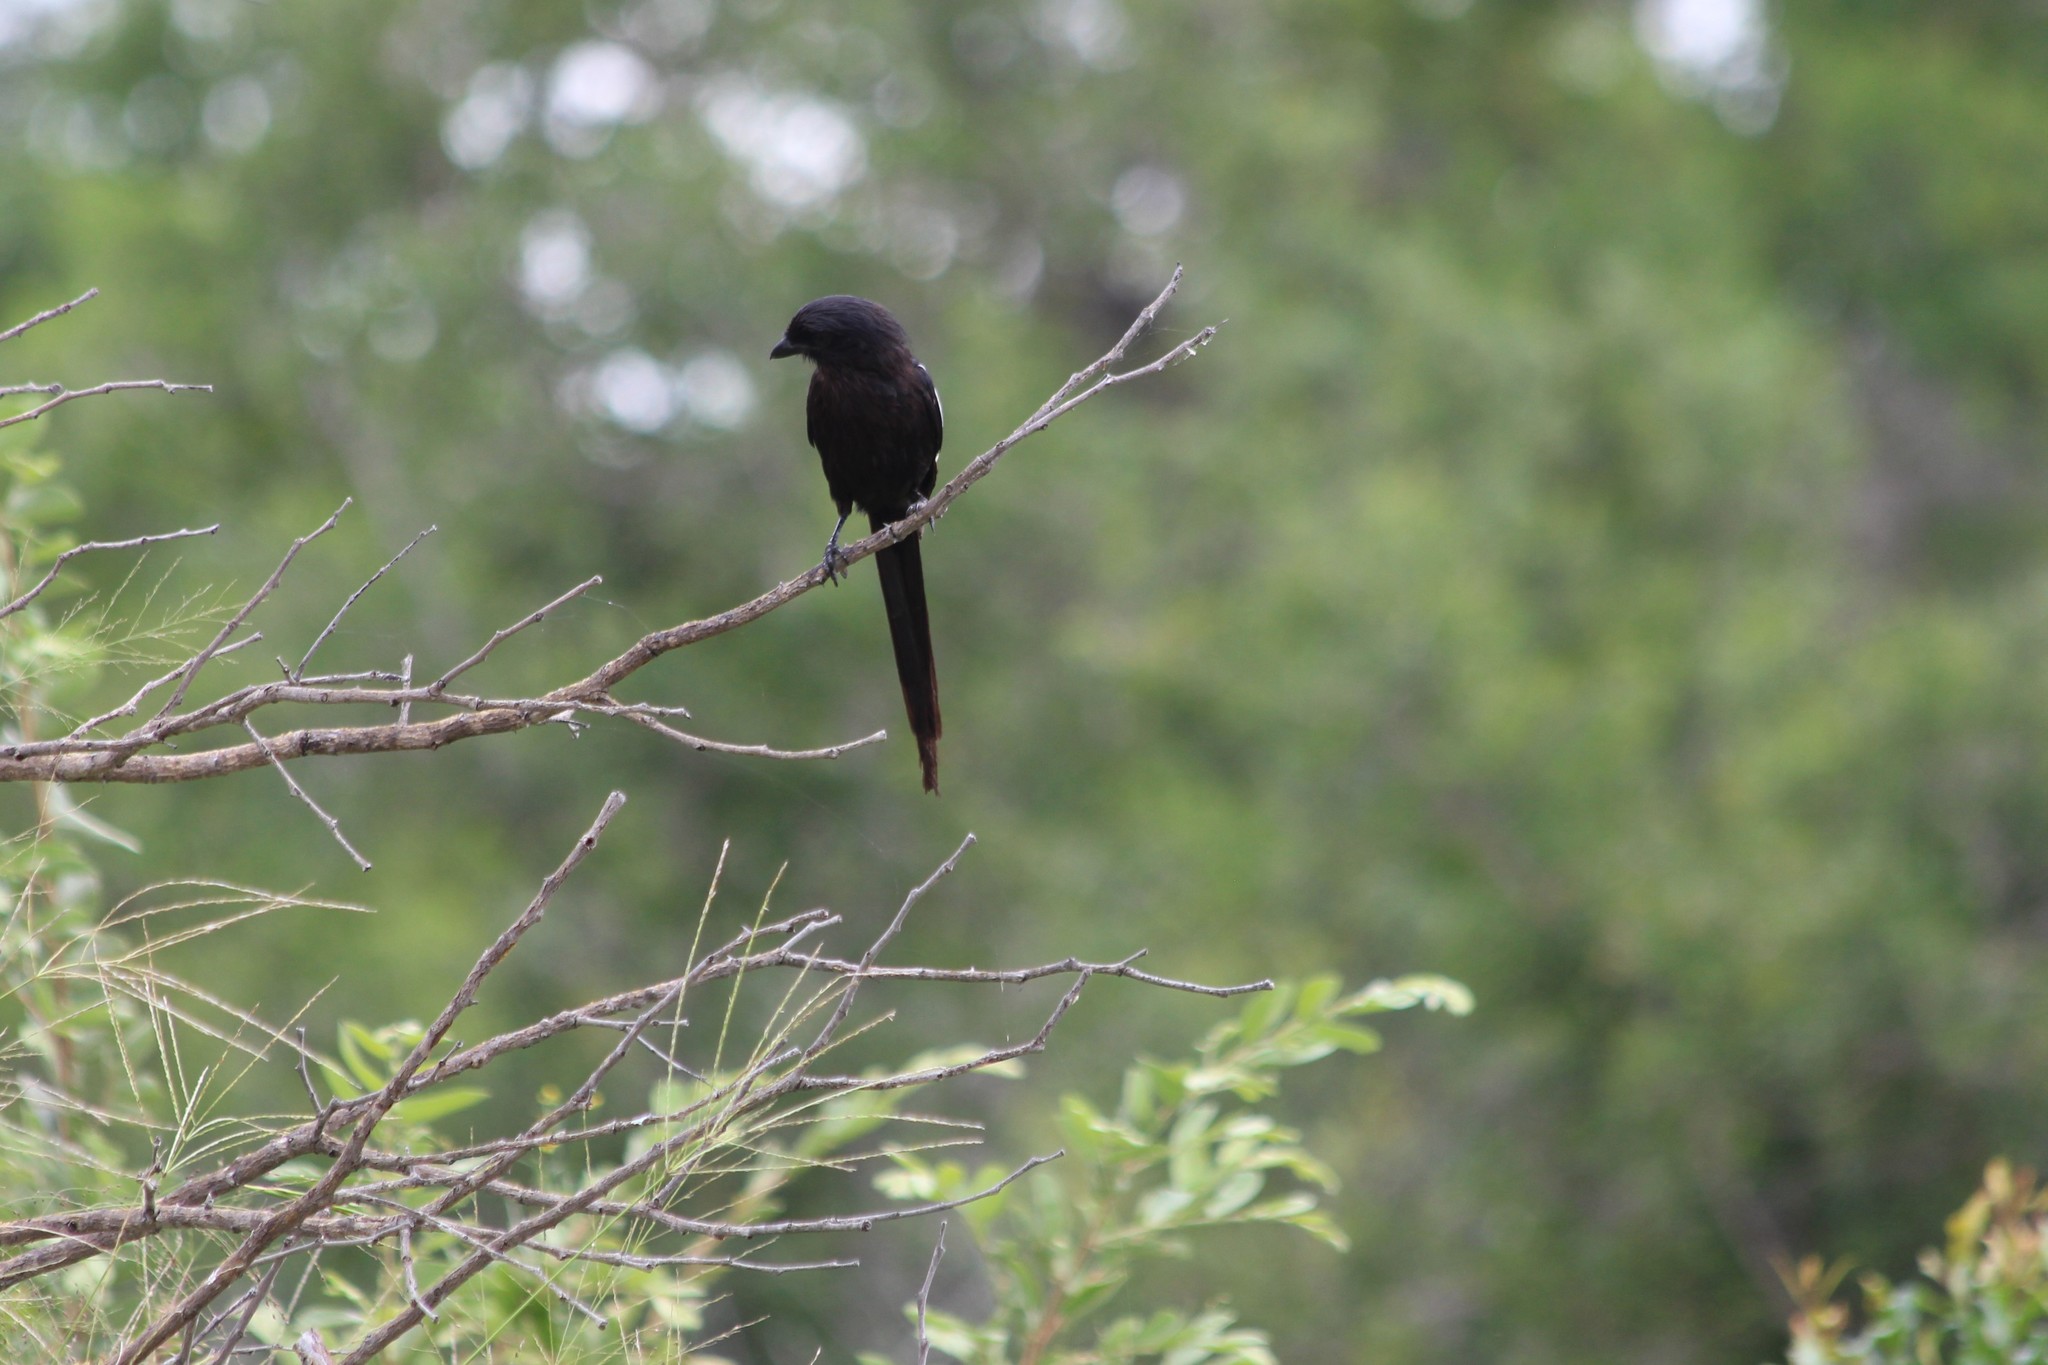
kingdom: Animalia
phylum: Chordata
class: Aves
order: Passeriformes
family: Laniidae
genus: Urolestes
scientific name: Urolestes melanoleucus
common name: Magpie shrike
